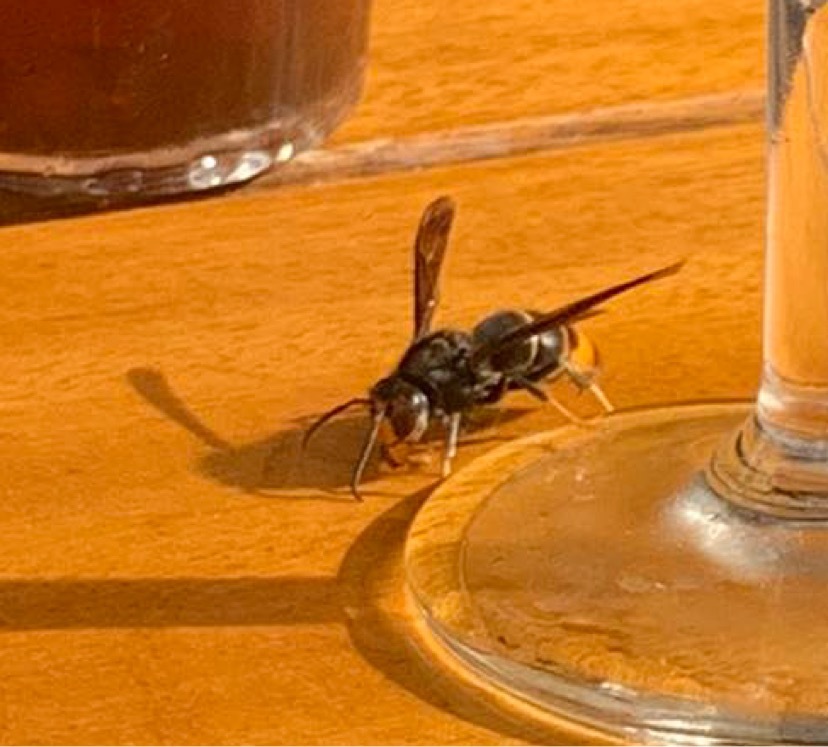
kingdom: Animalia
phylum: Arthropoda
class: Insecta
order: Hymenoptera
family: Vespidae
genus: Vespa
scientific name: Vespa velutina
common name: Asian hornet
